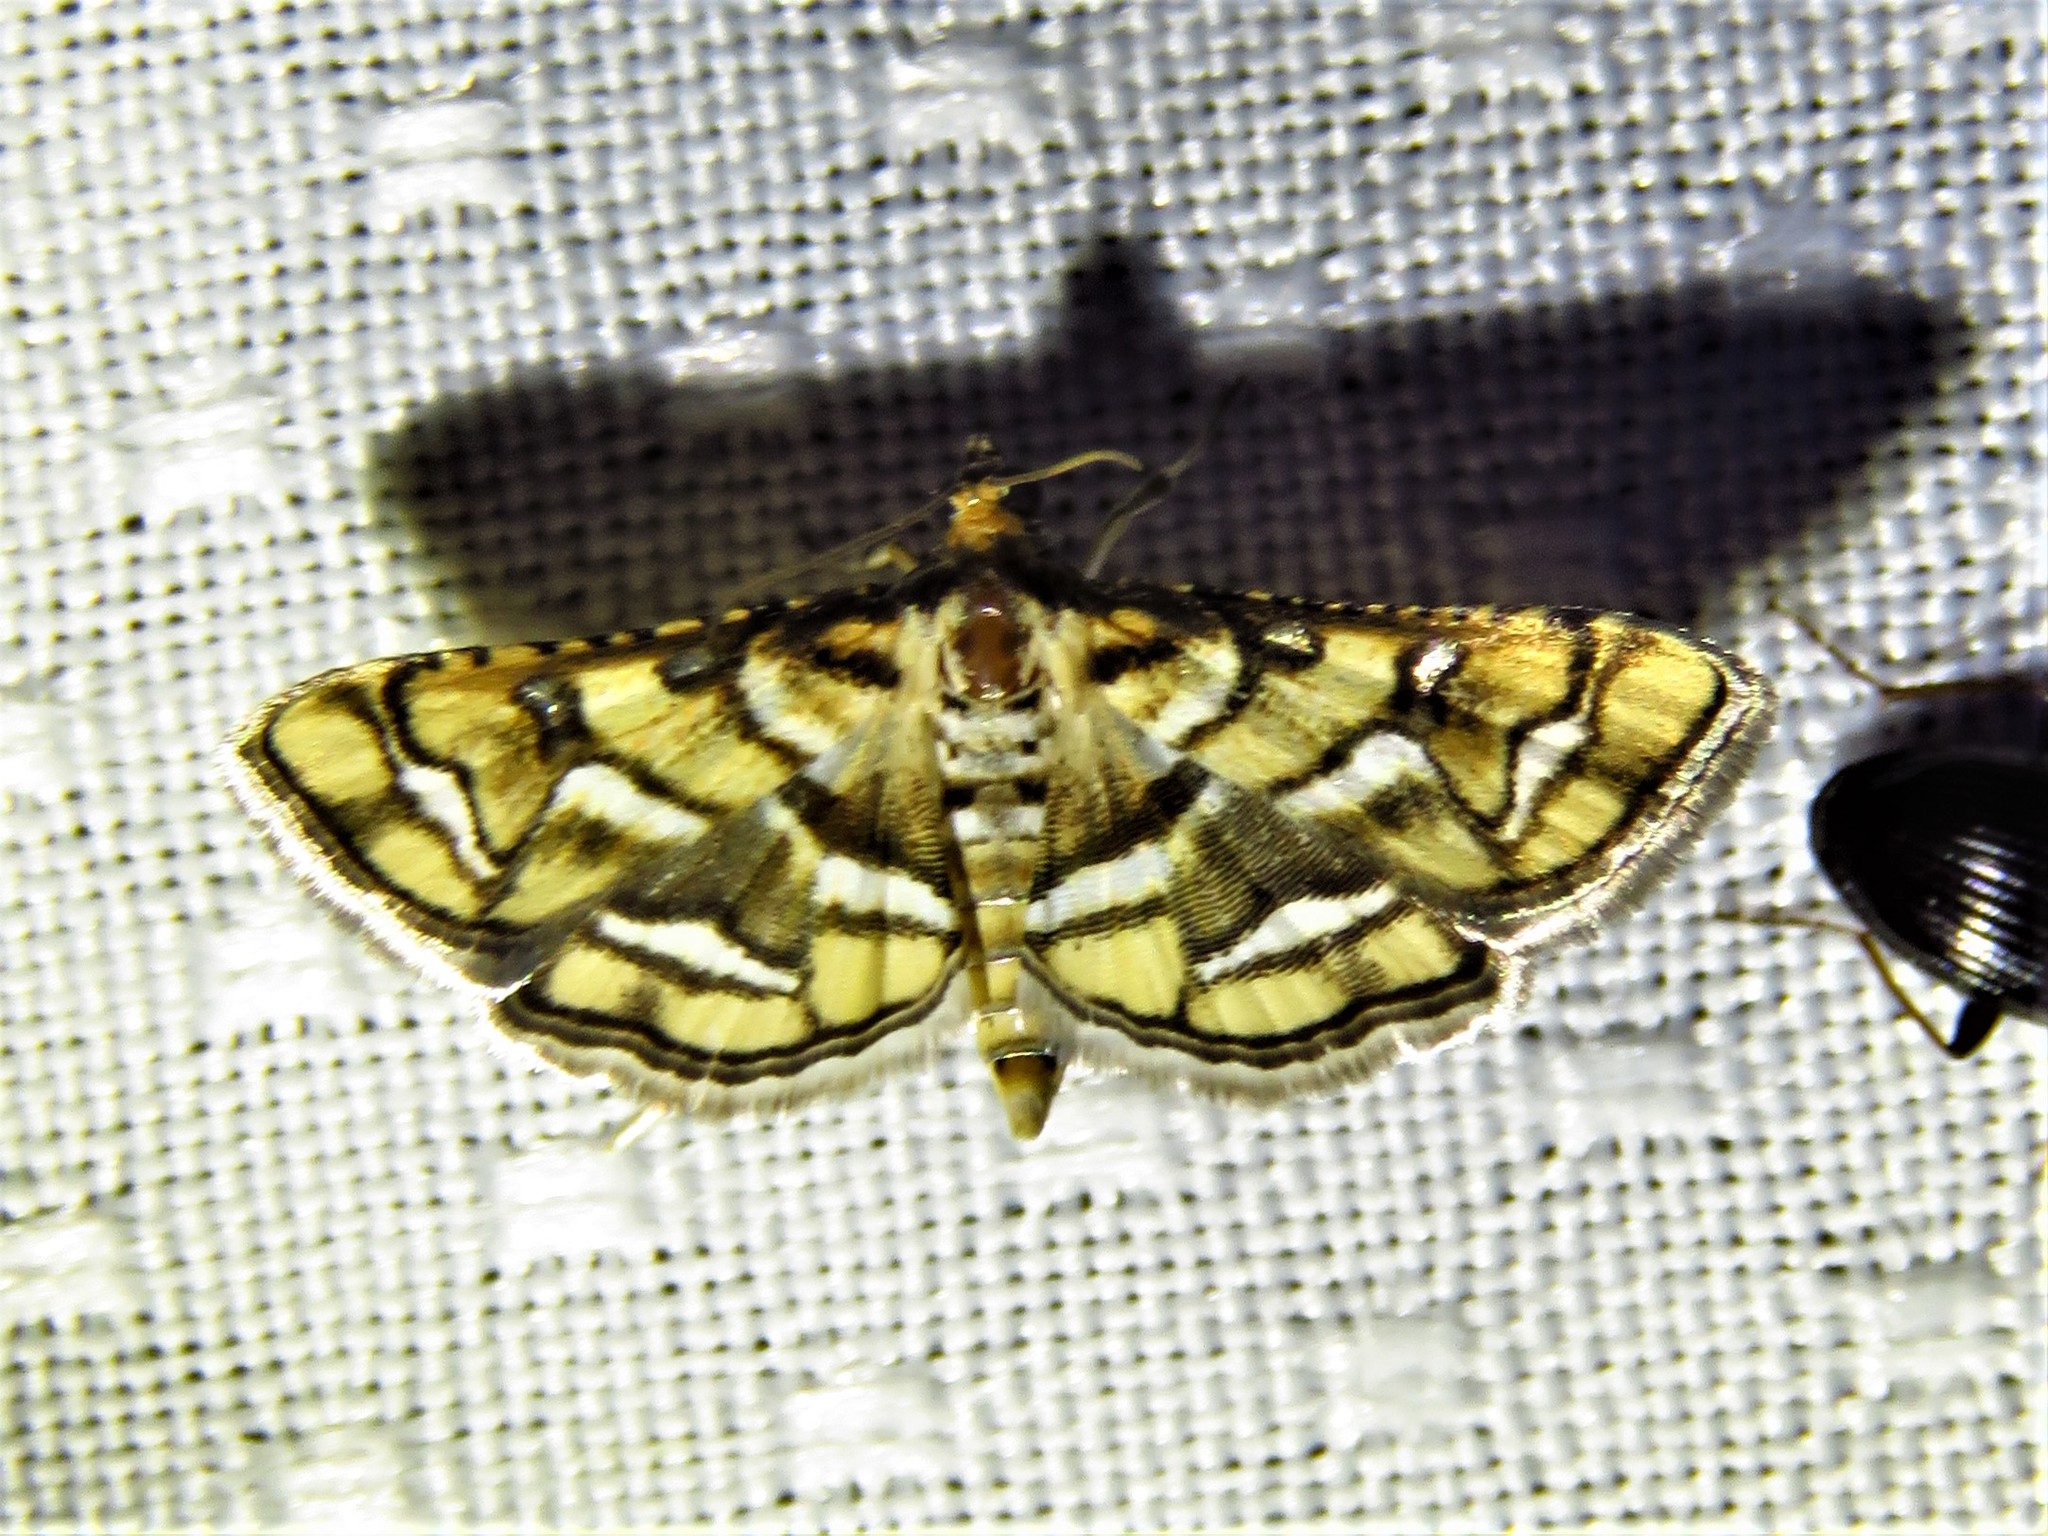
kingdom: Animalia
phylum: Arthropoda
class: Insecta
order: Lepidoptera
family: Crambidae
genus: Hileithia
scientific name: Hileithia magualis
